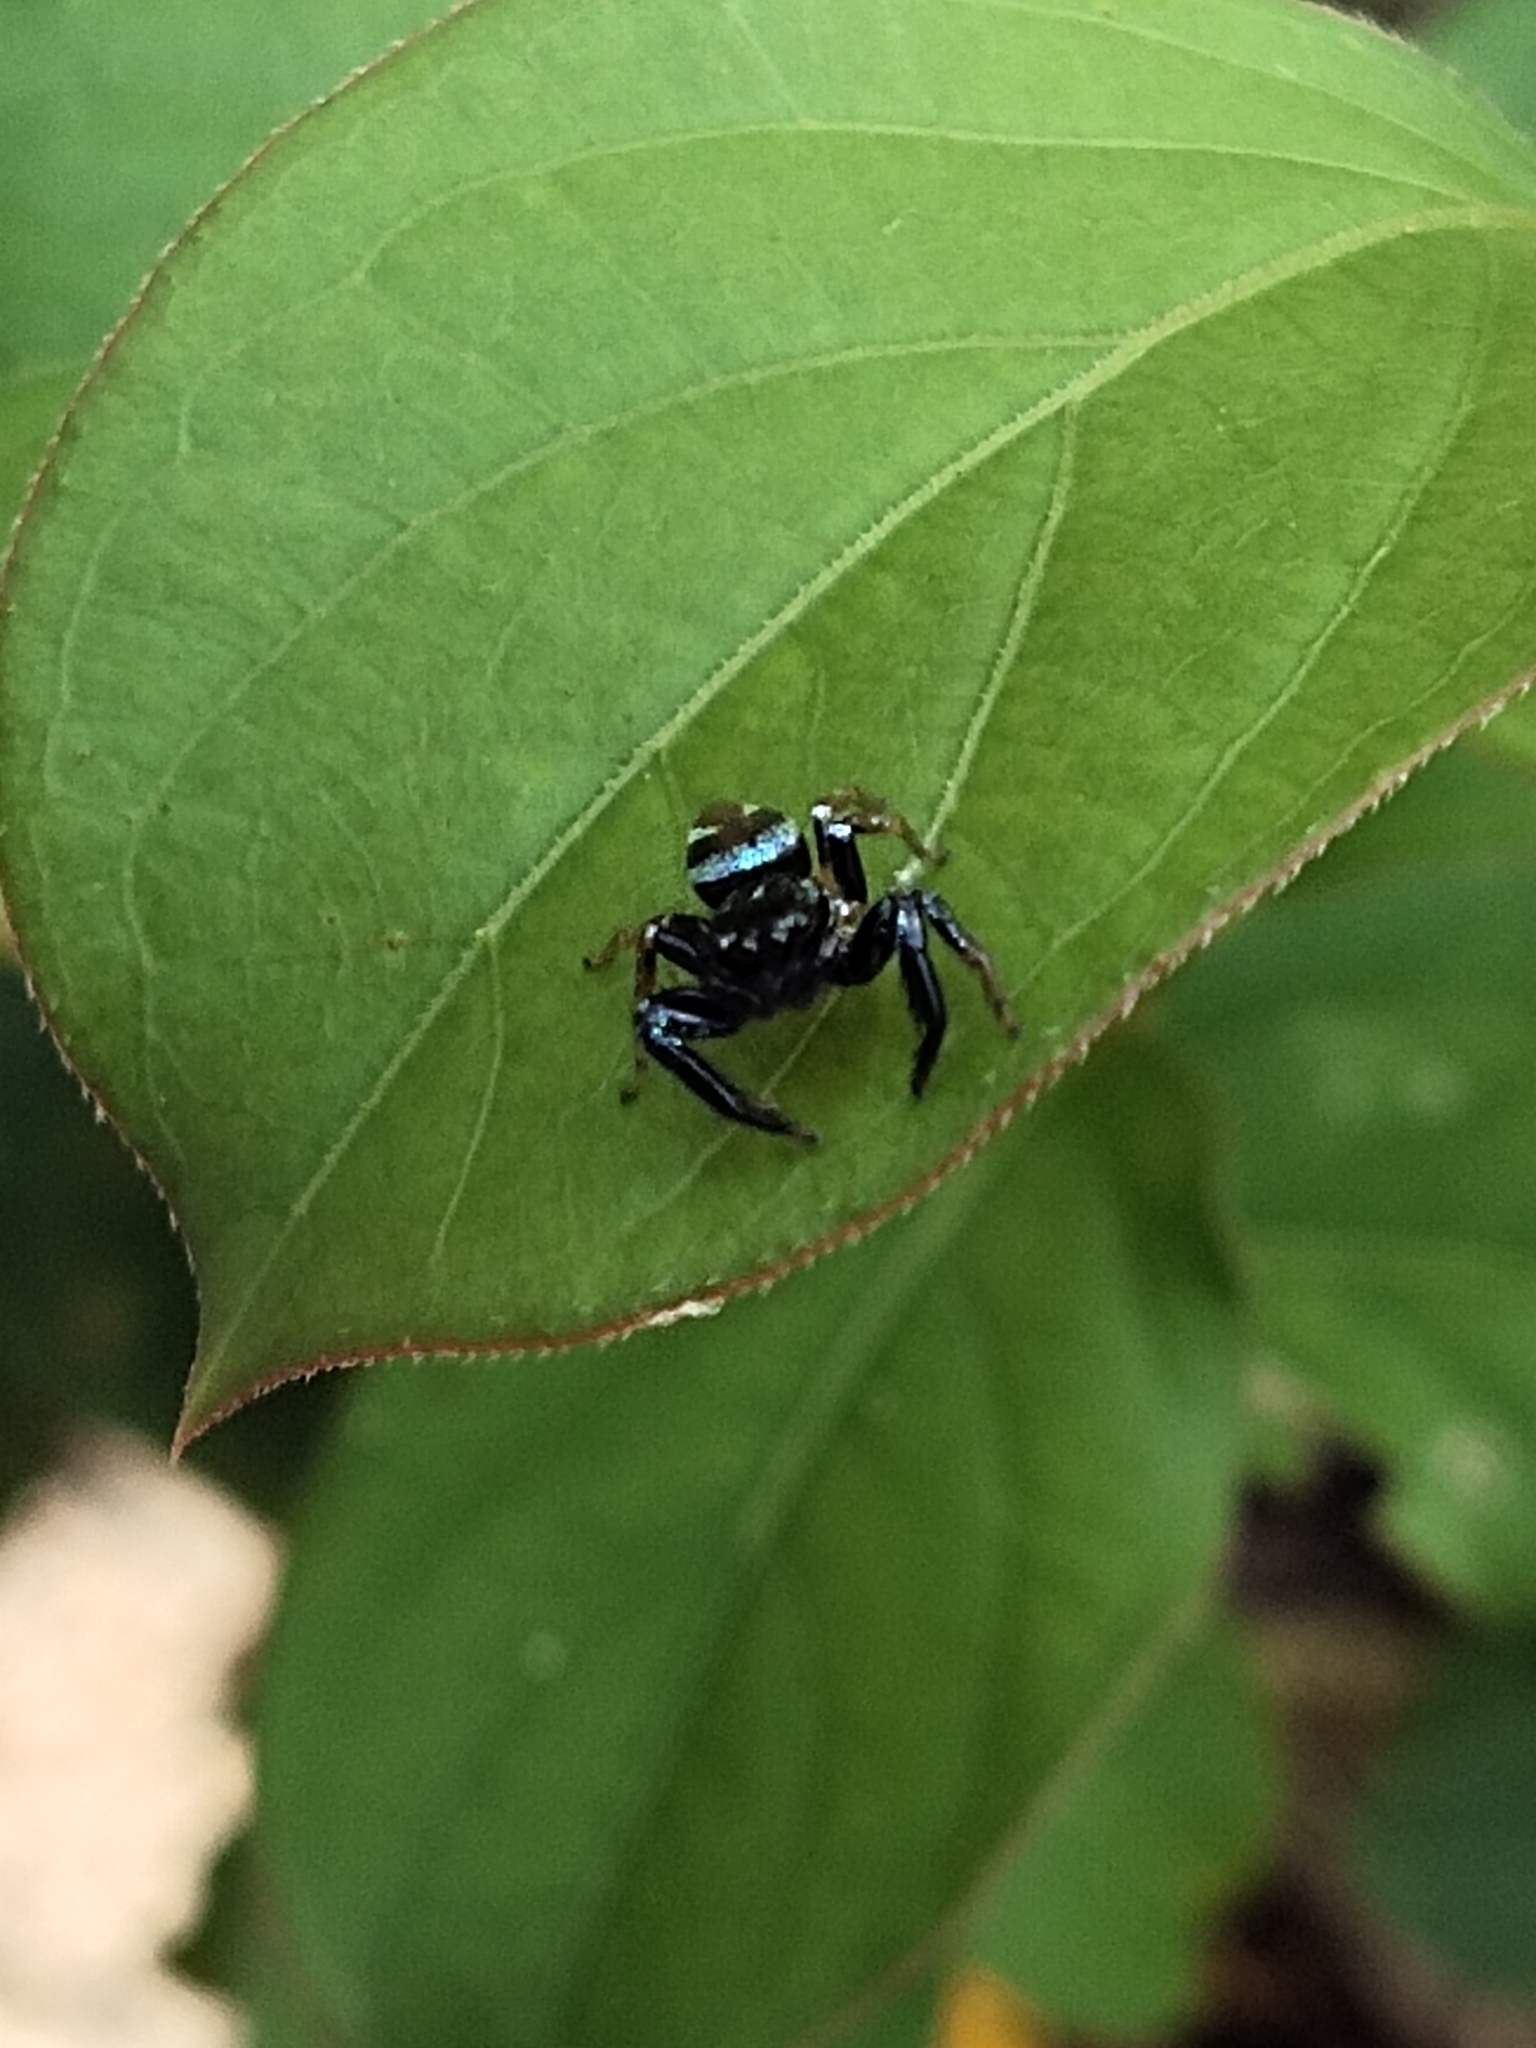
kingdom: Animalia
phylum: Arthropoda
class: Arachnida
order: Araneae
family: Salticidae
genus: Thiania
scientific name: Thiania bhamoensis
